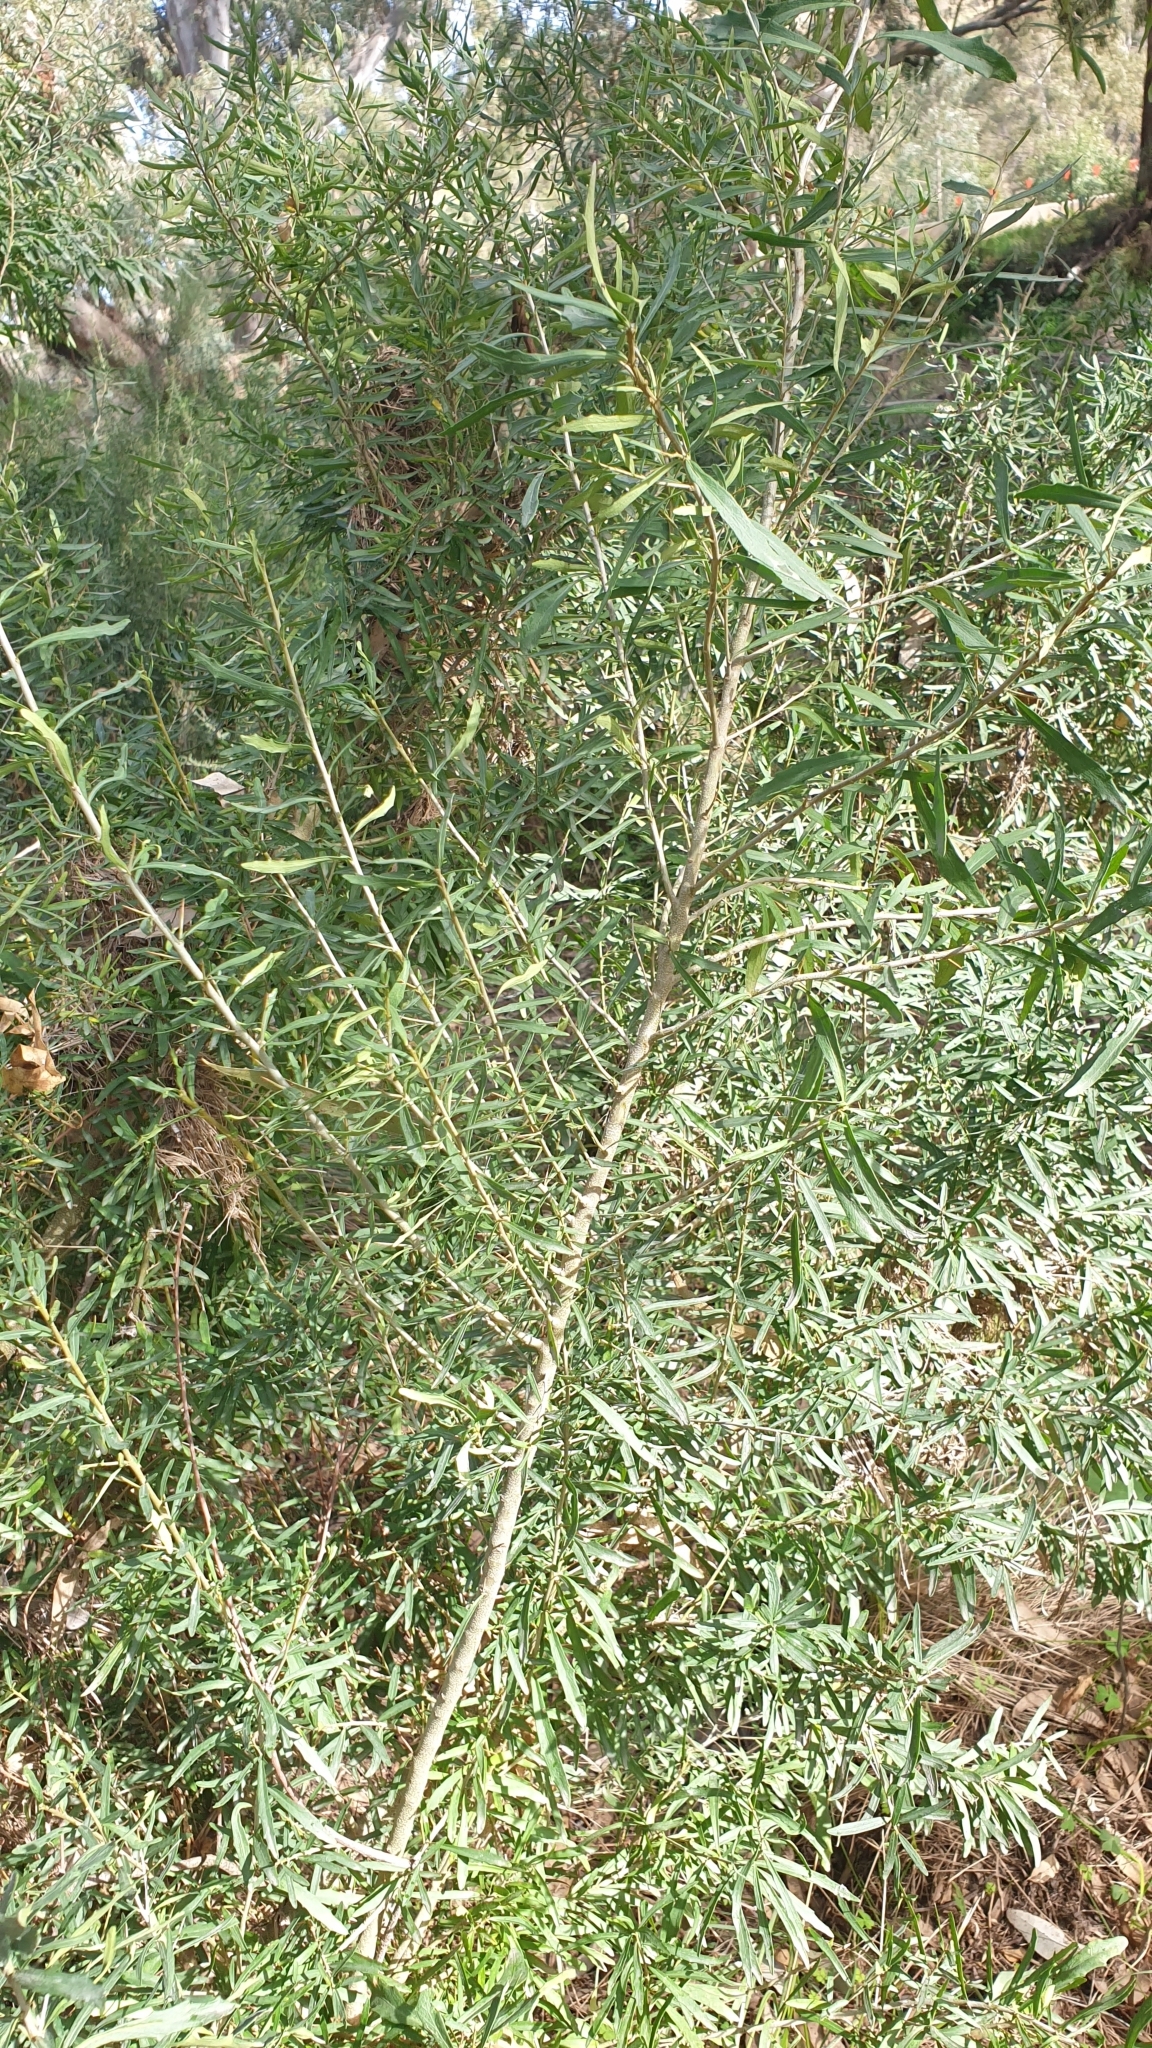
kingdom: Plantae
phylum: Tracheophyta
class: Magnoliopsida
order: Malpighiales
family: Violaceae
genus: Melicytus
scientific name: Melicytus dentatus
